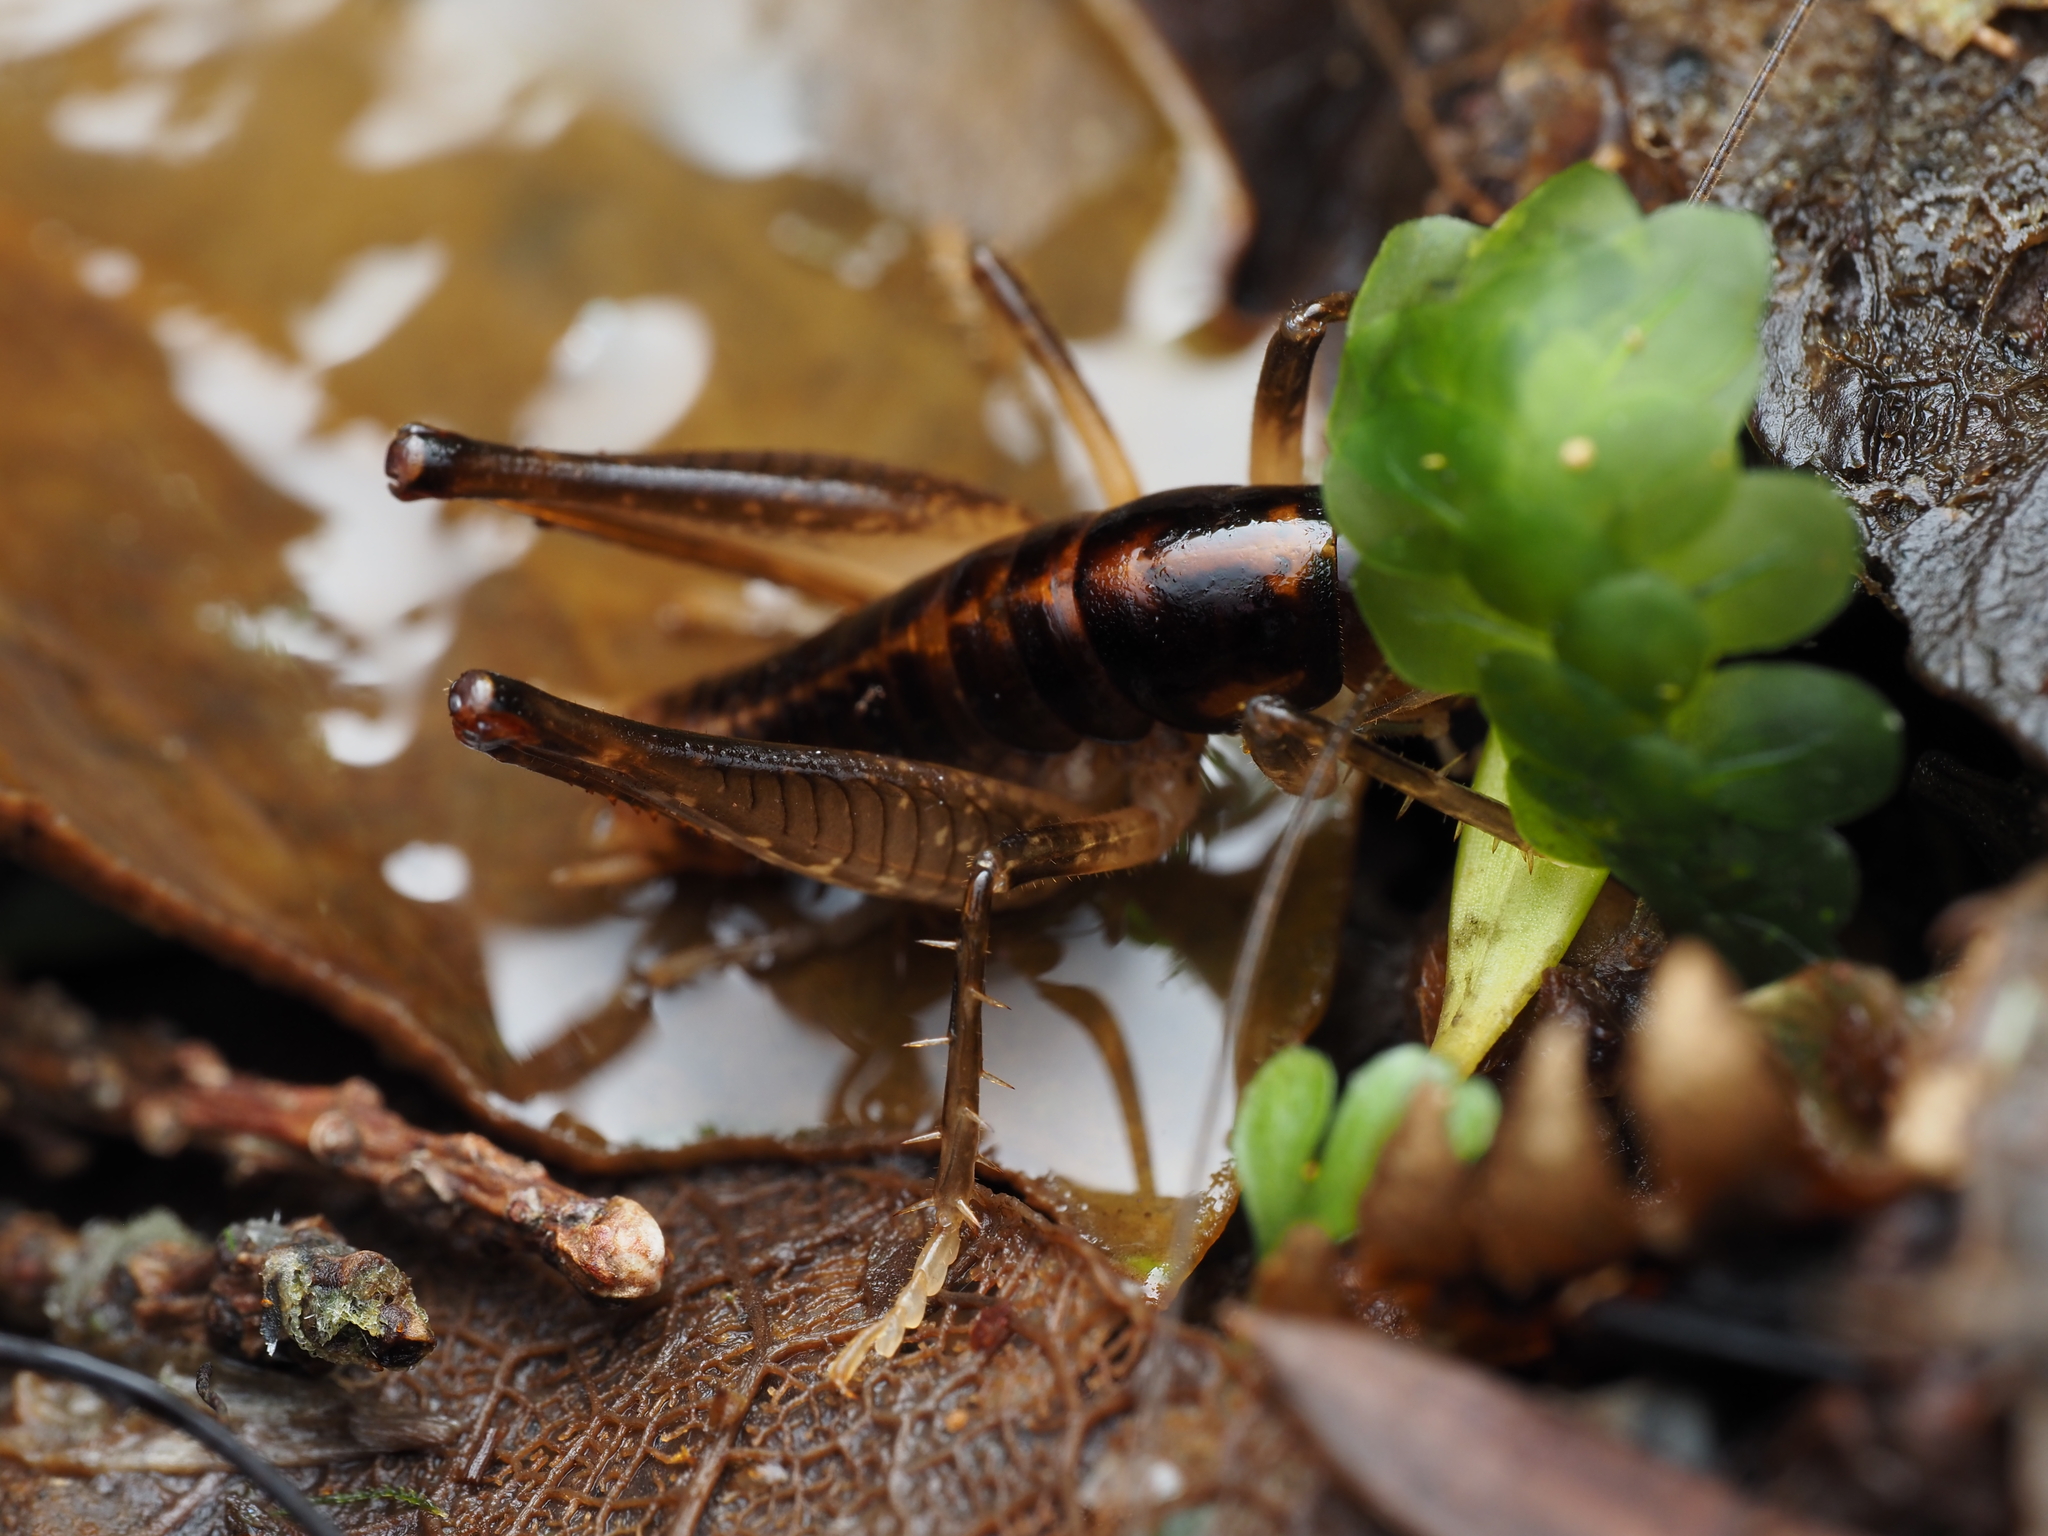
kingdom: Animalia
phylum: Arthropoda
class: Insecta
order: Orthoptera
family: Anostostomatidae
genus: Hemiandrus
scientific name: Hemiandrus brucei
